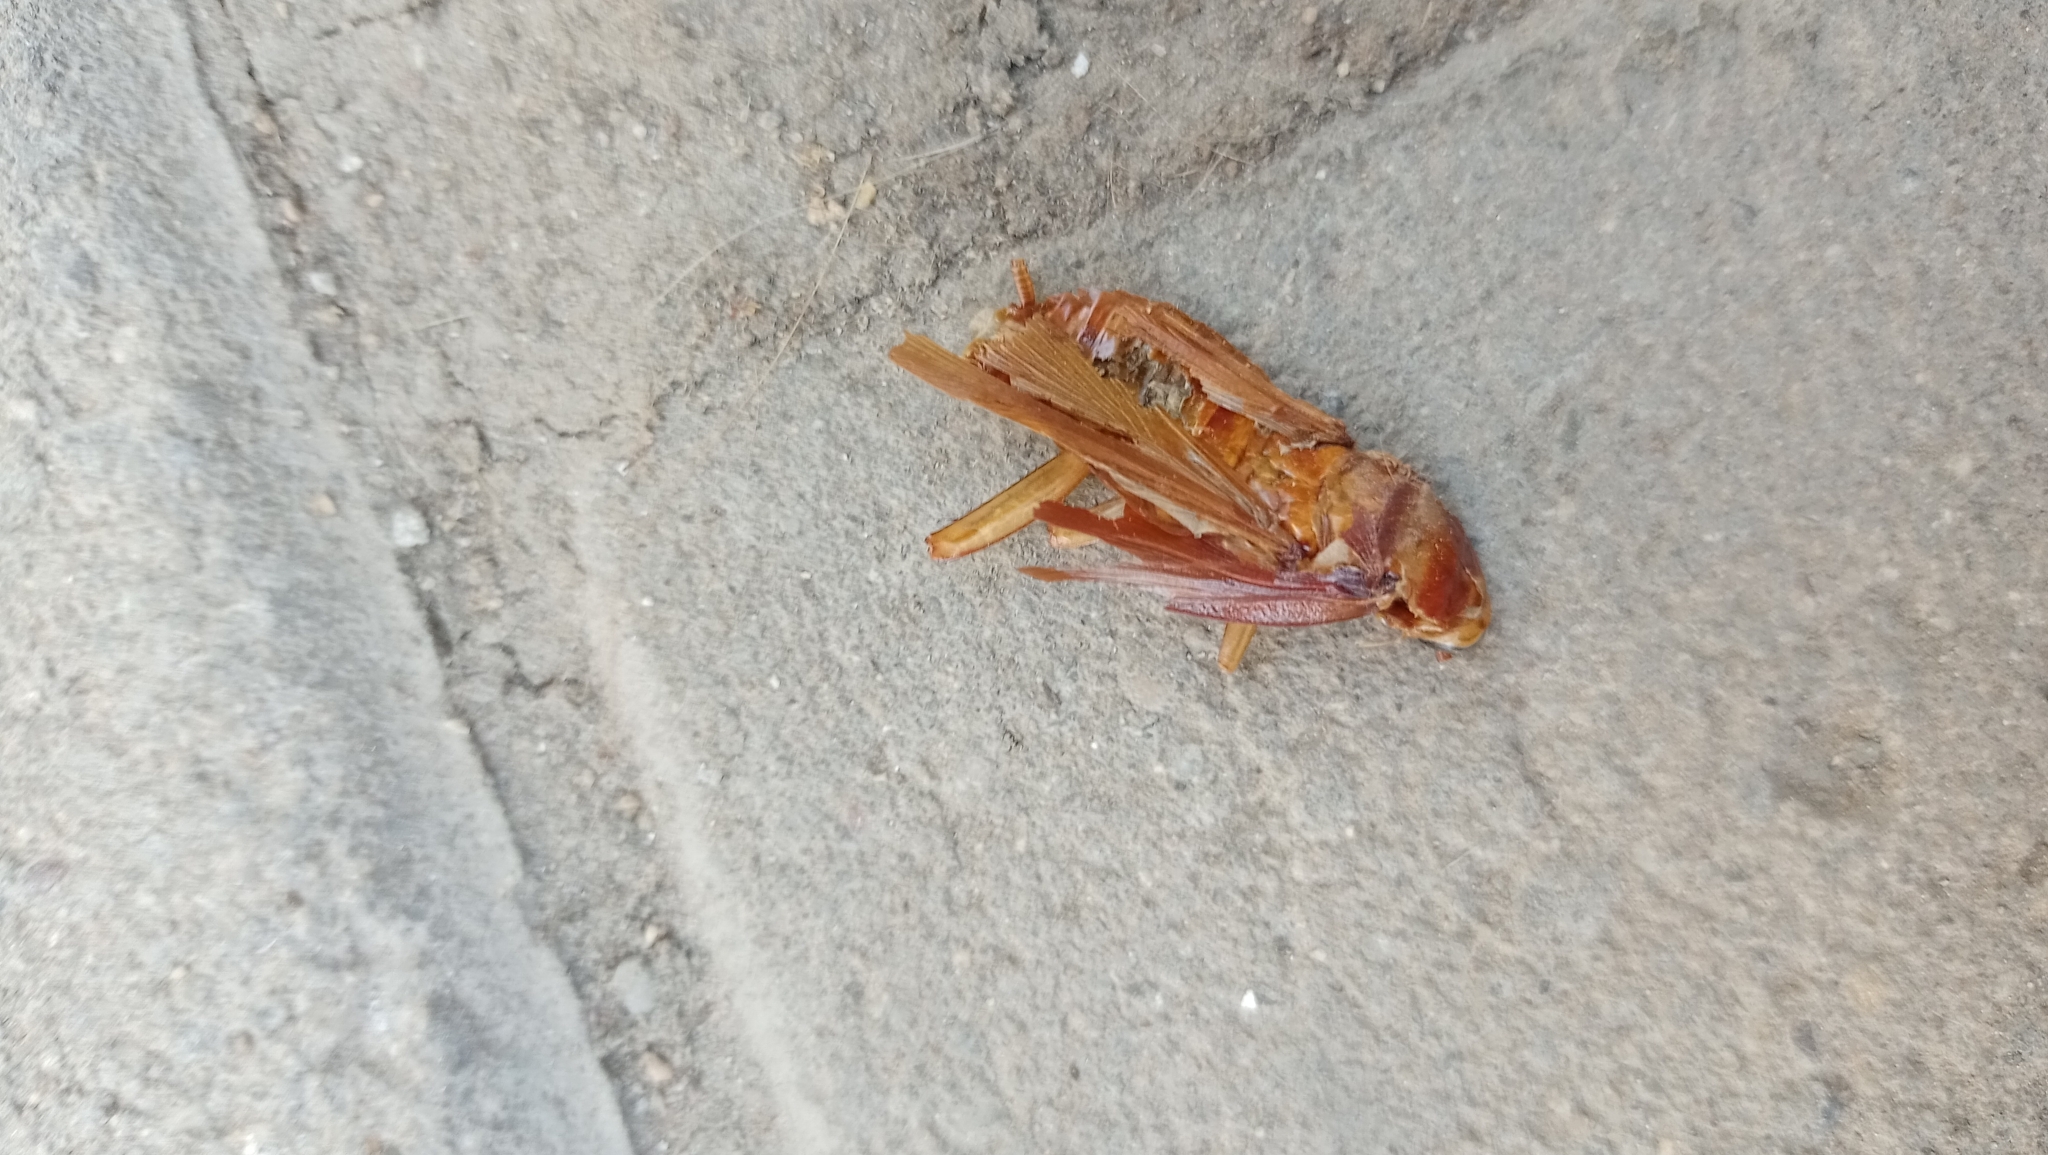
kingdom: Animalia
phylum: Arthropoda
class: Insecta
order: Blattodea
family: Blattidae
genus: Periplaneta
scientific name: Periplaneta americana
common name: American cockroach
